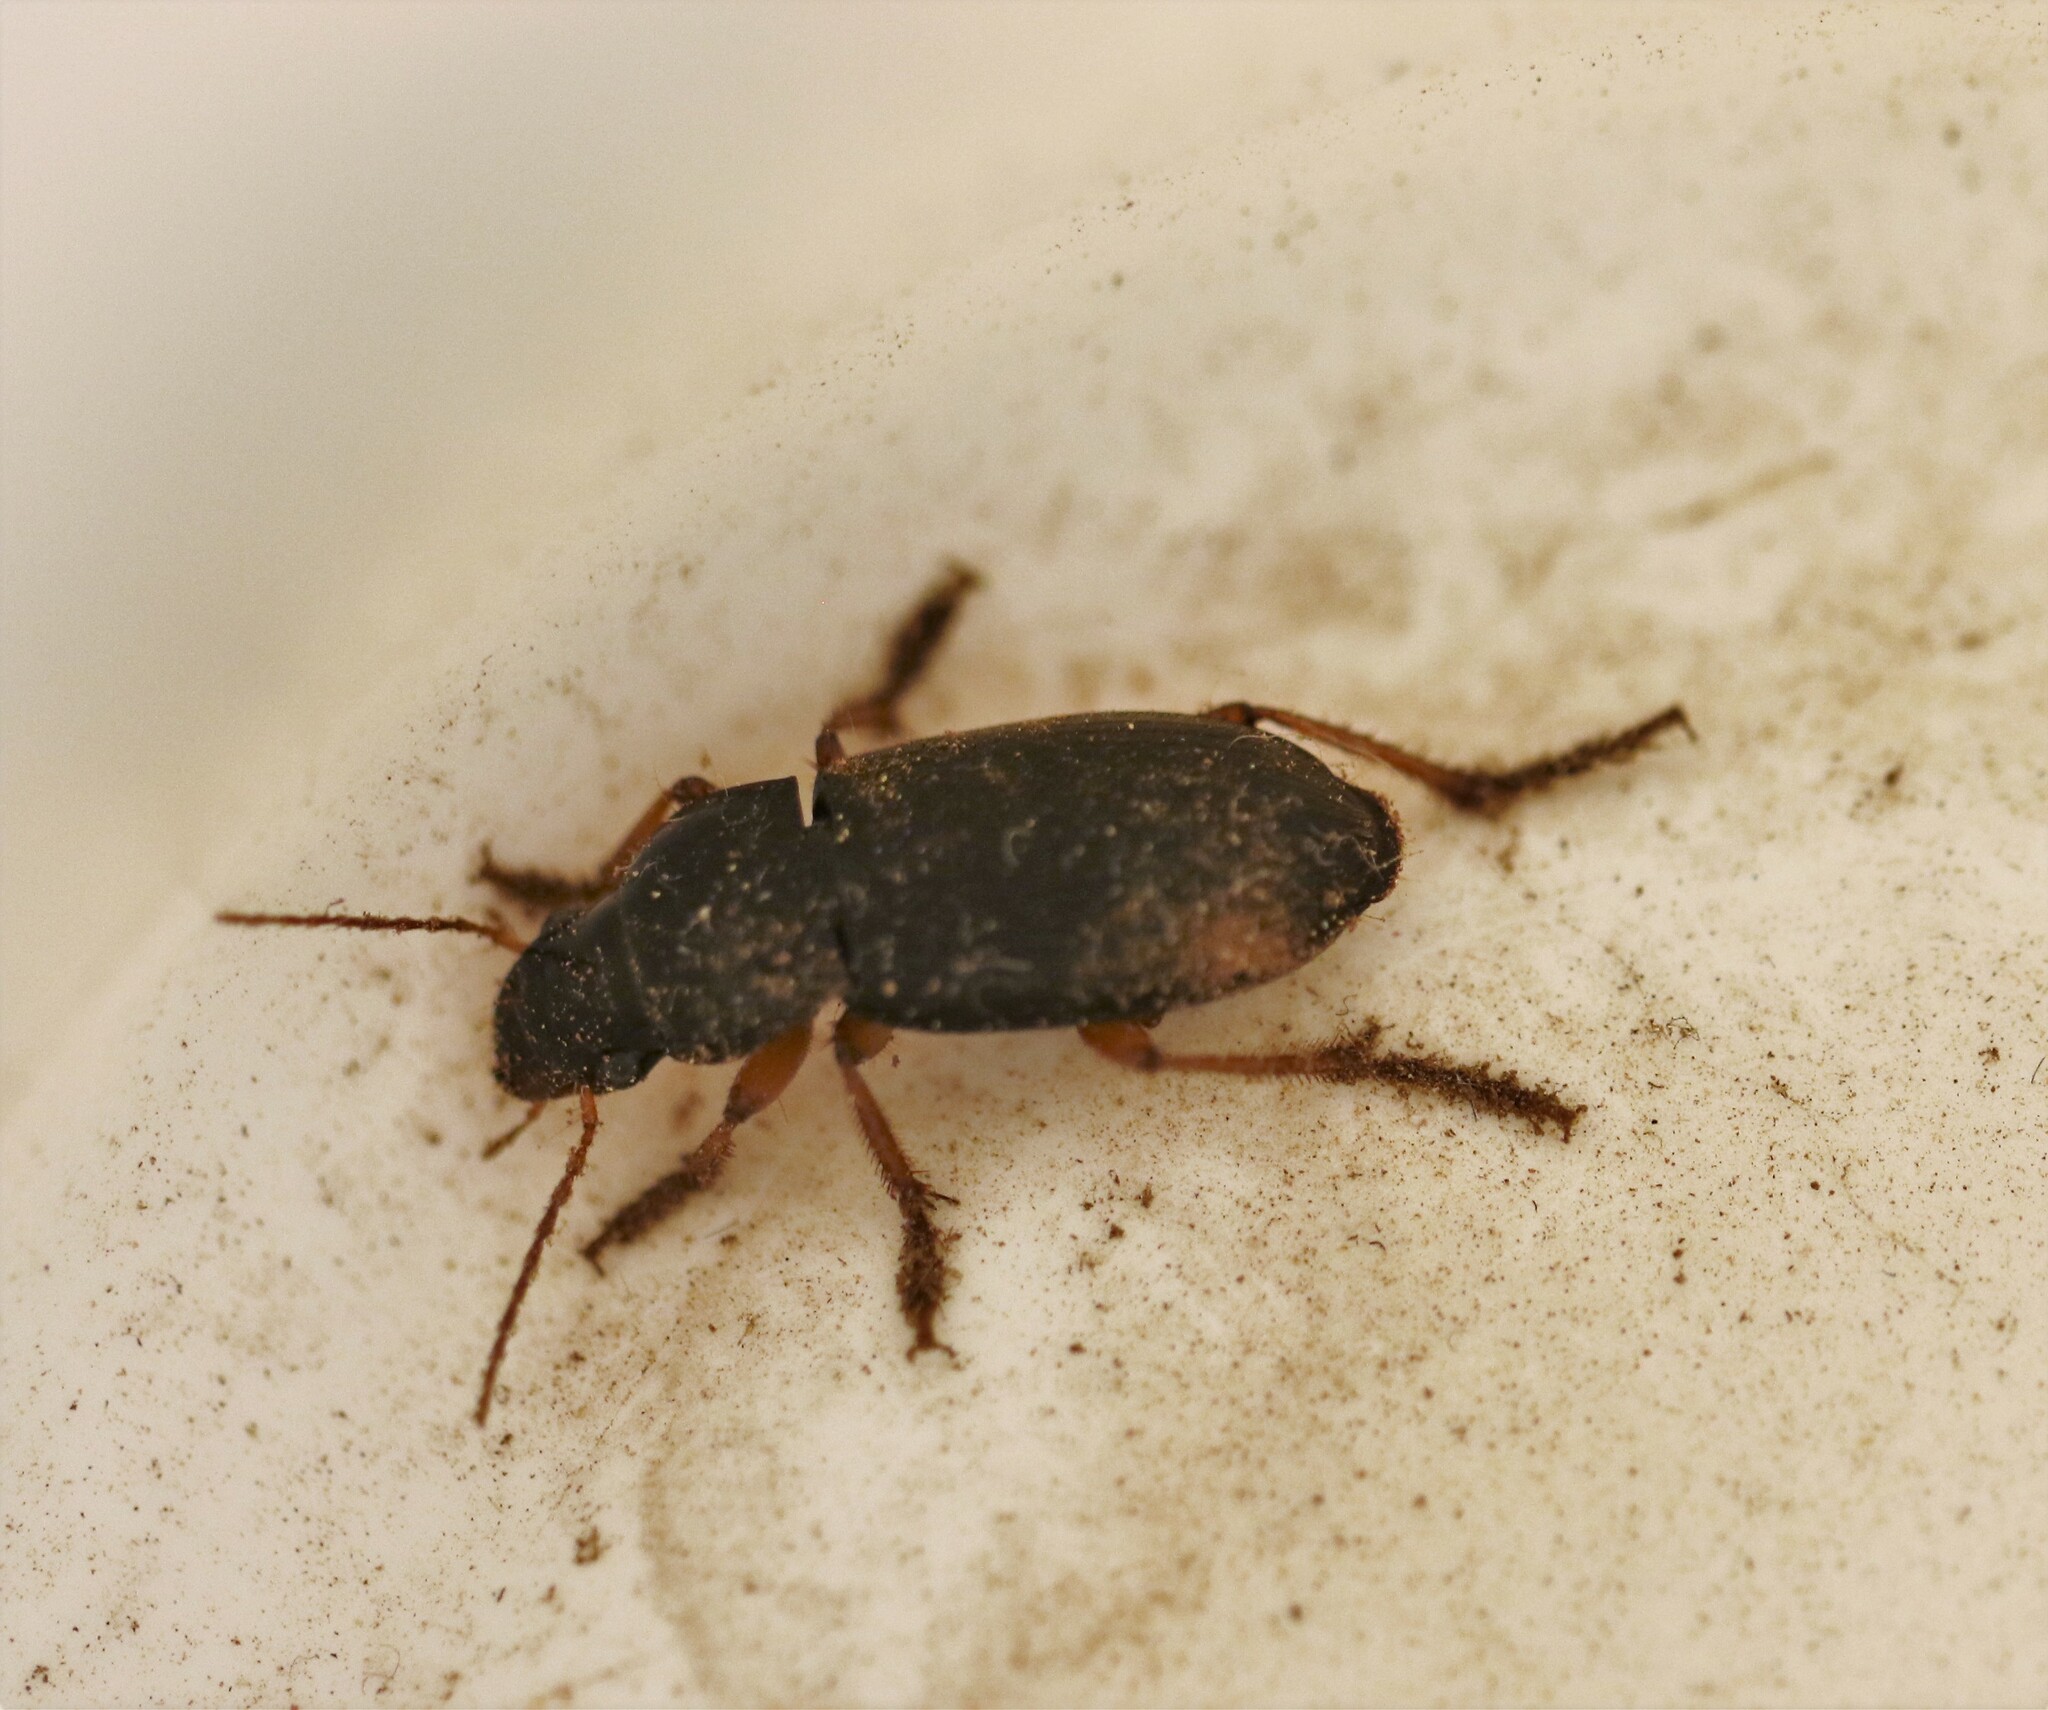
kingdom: Animalia
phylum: Arthropoda
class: Insecta
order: Coleoptera
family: Carabidae
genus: Harpalus
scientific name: Harpalus rufipes
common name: Strawberry harp ground beetle
